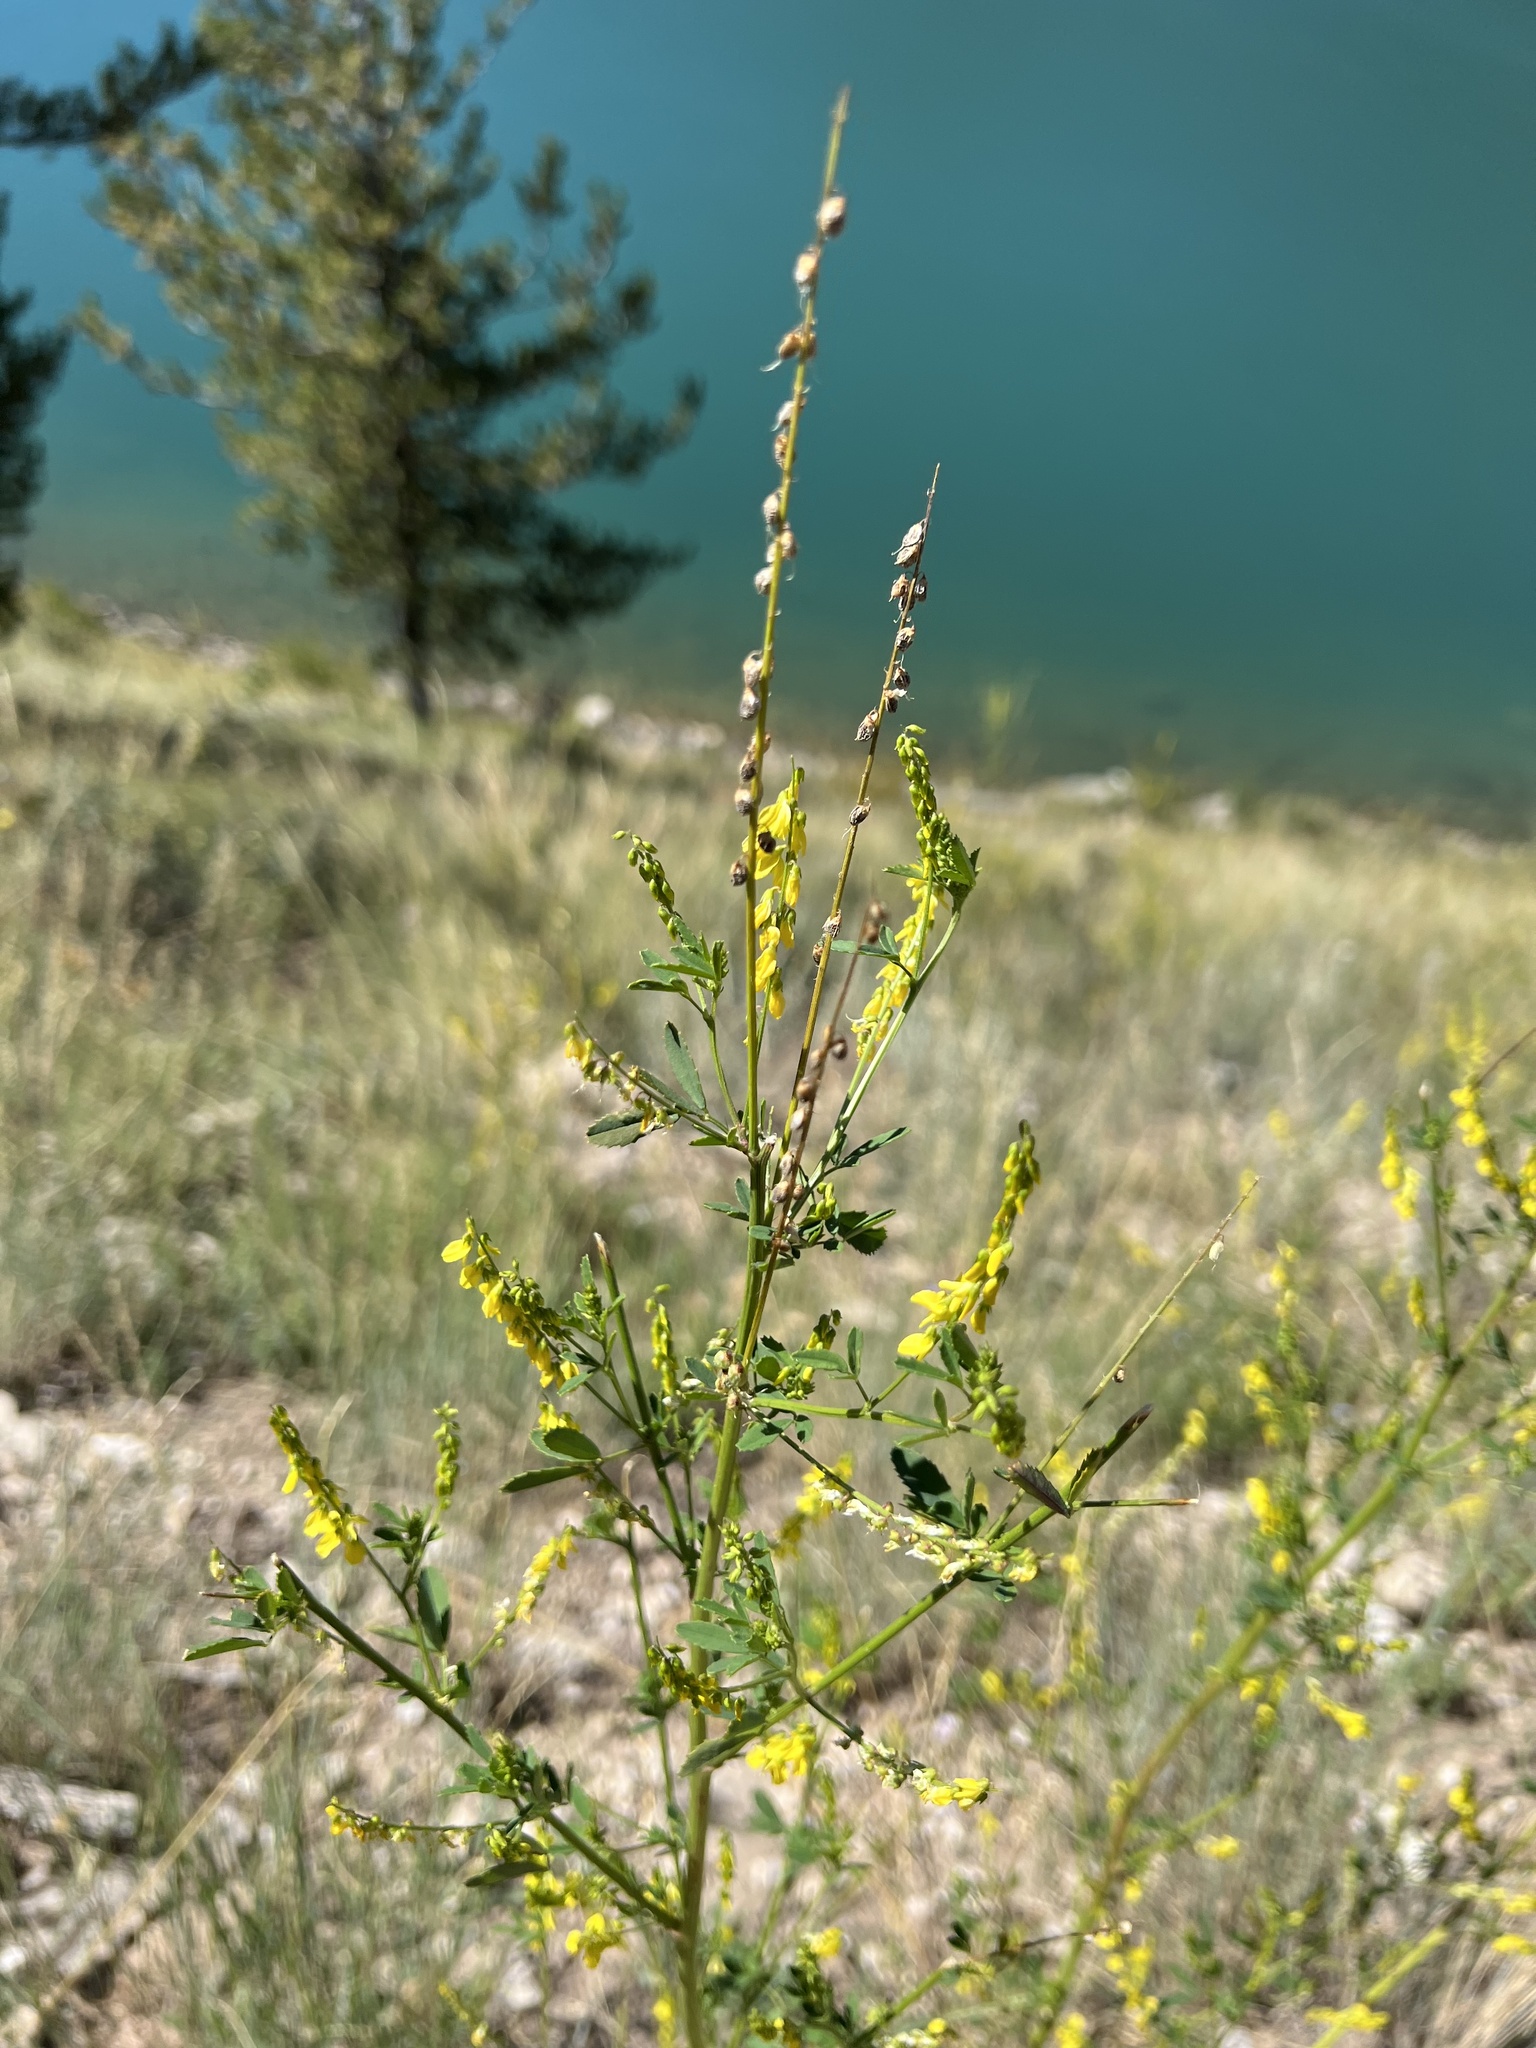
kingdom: Plantae
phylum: Tracheophyta
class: Magnoliopsida
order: Fabales
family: Fabaceae
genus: Melilotus
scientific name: Melilotus officinalis
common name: Sweetclover
